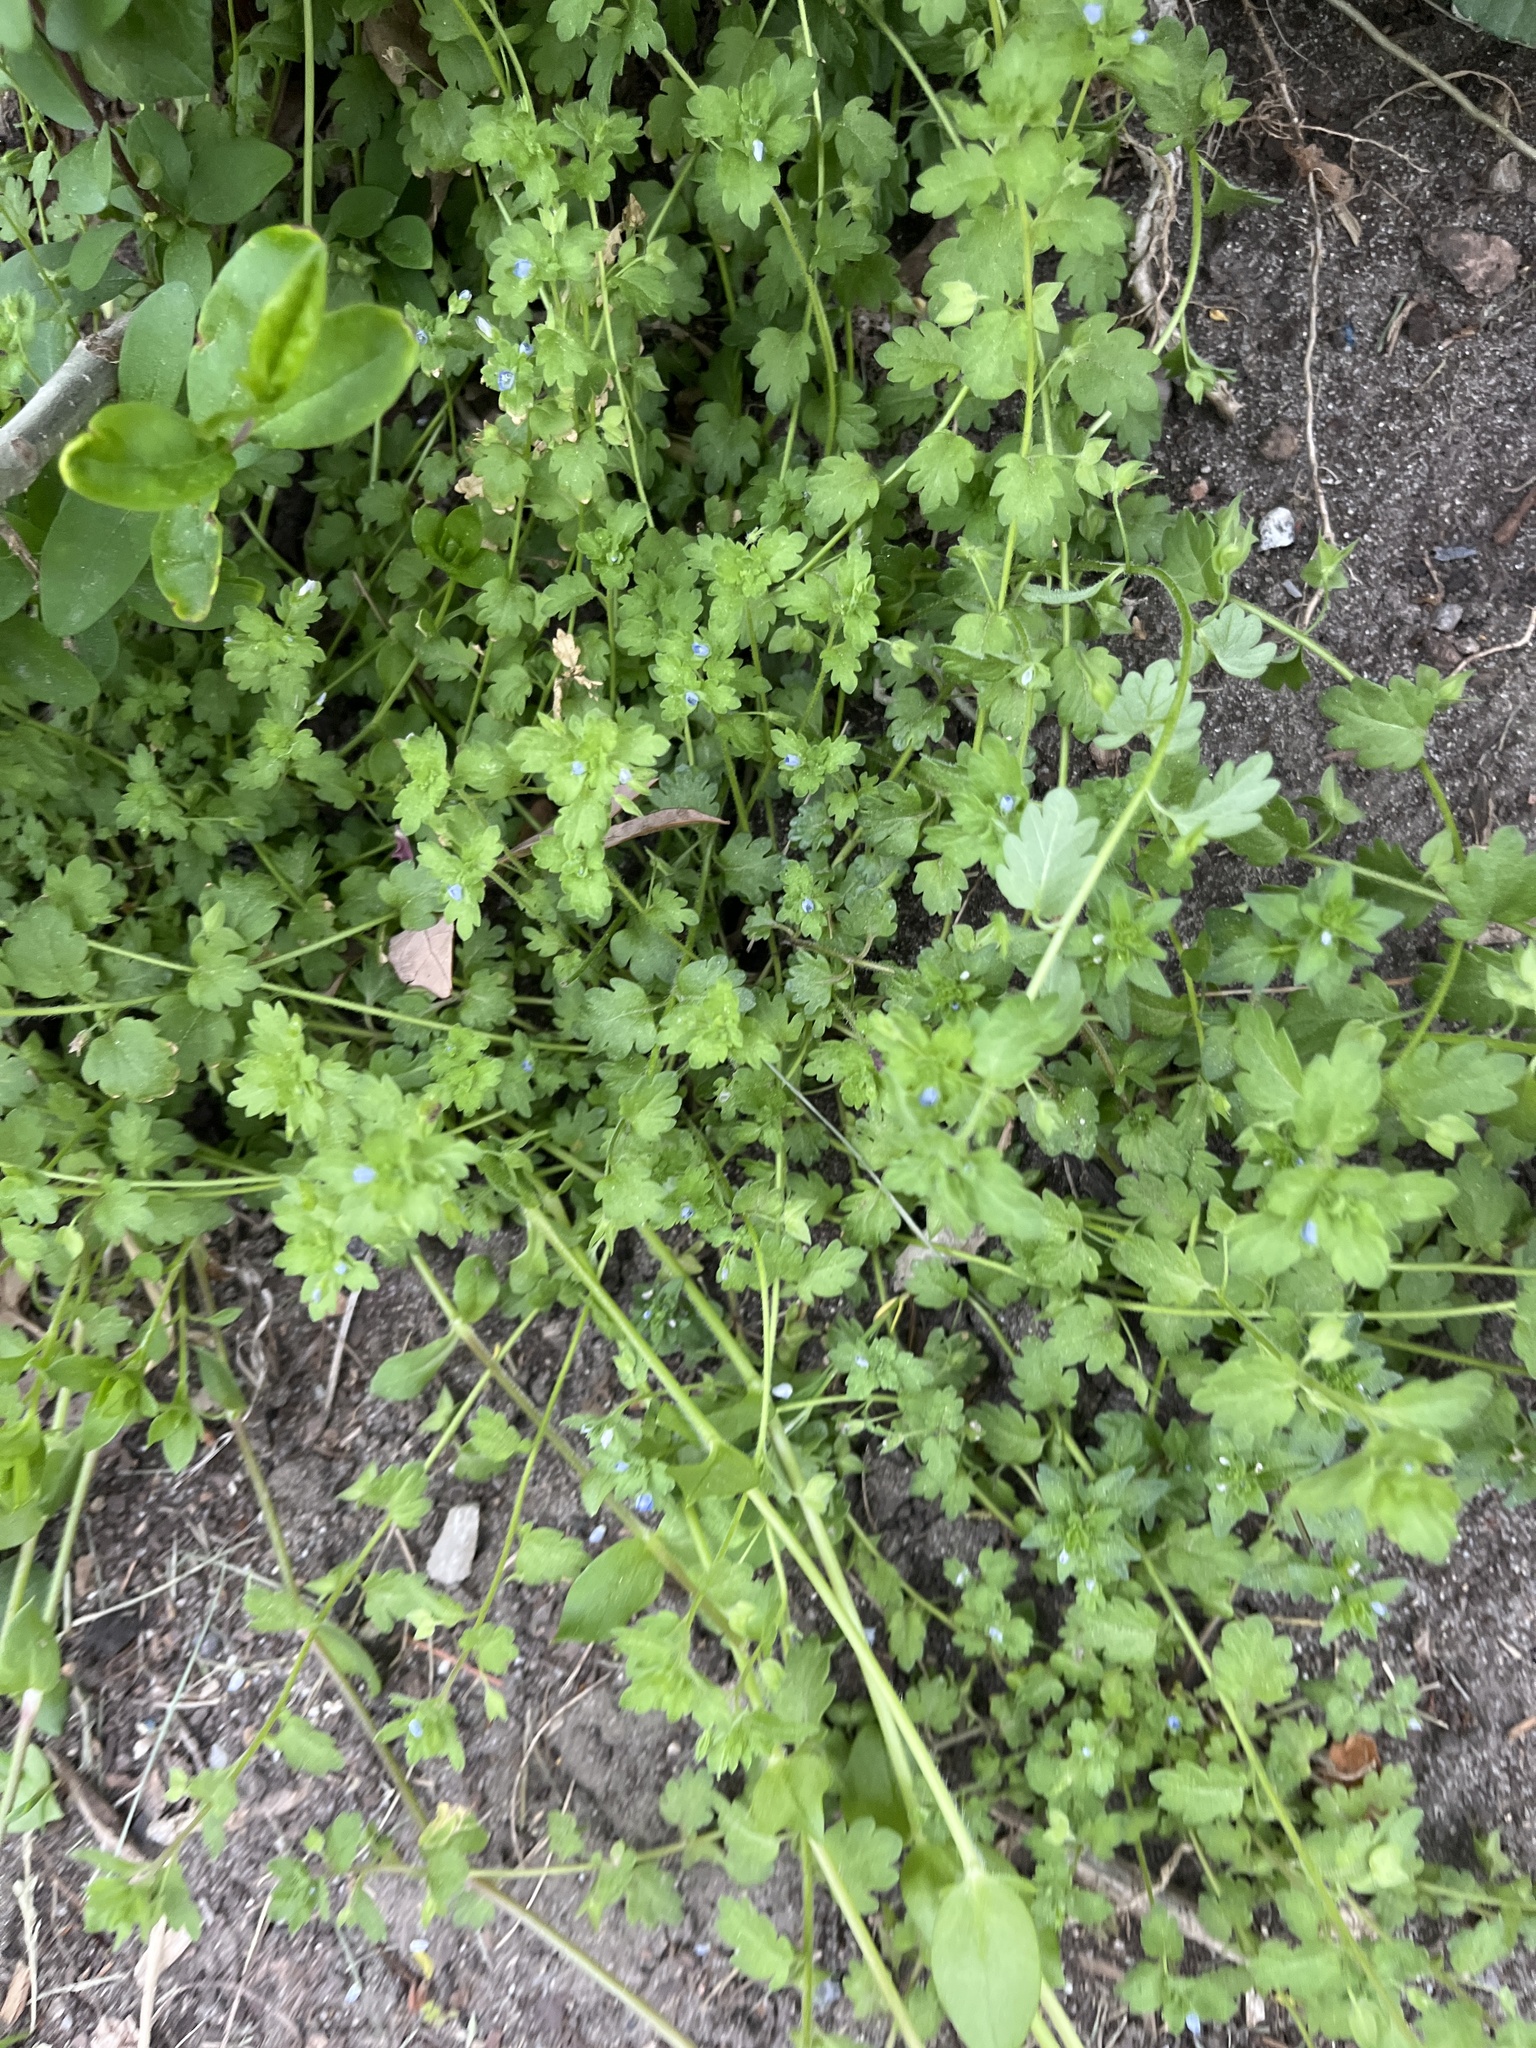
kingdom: Plantae
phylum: Tracheophyta
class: Magnoliopsida
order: Lamiales
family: Plantaginaceae
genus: Veronica
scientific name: Veronica polita
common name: Grey field-speedwell
